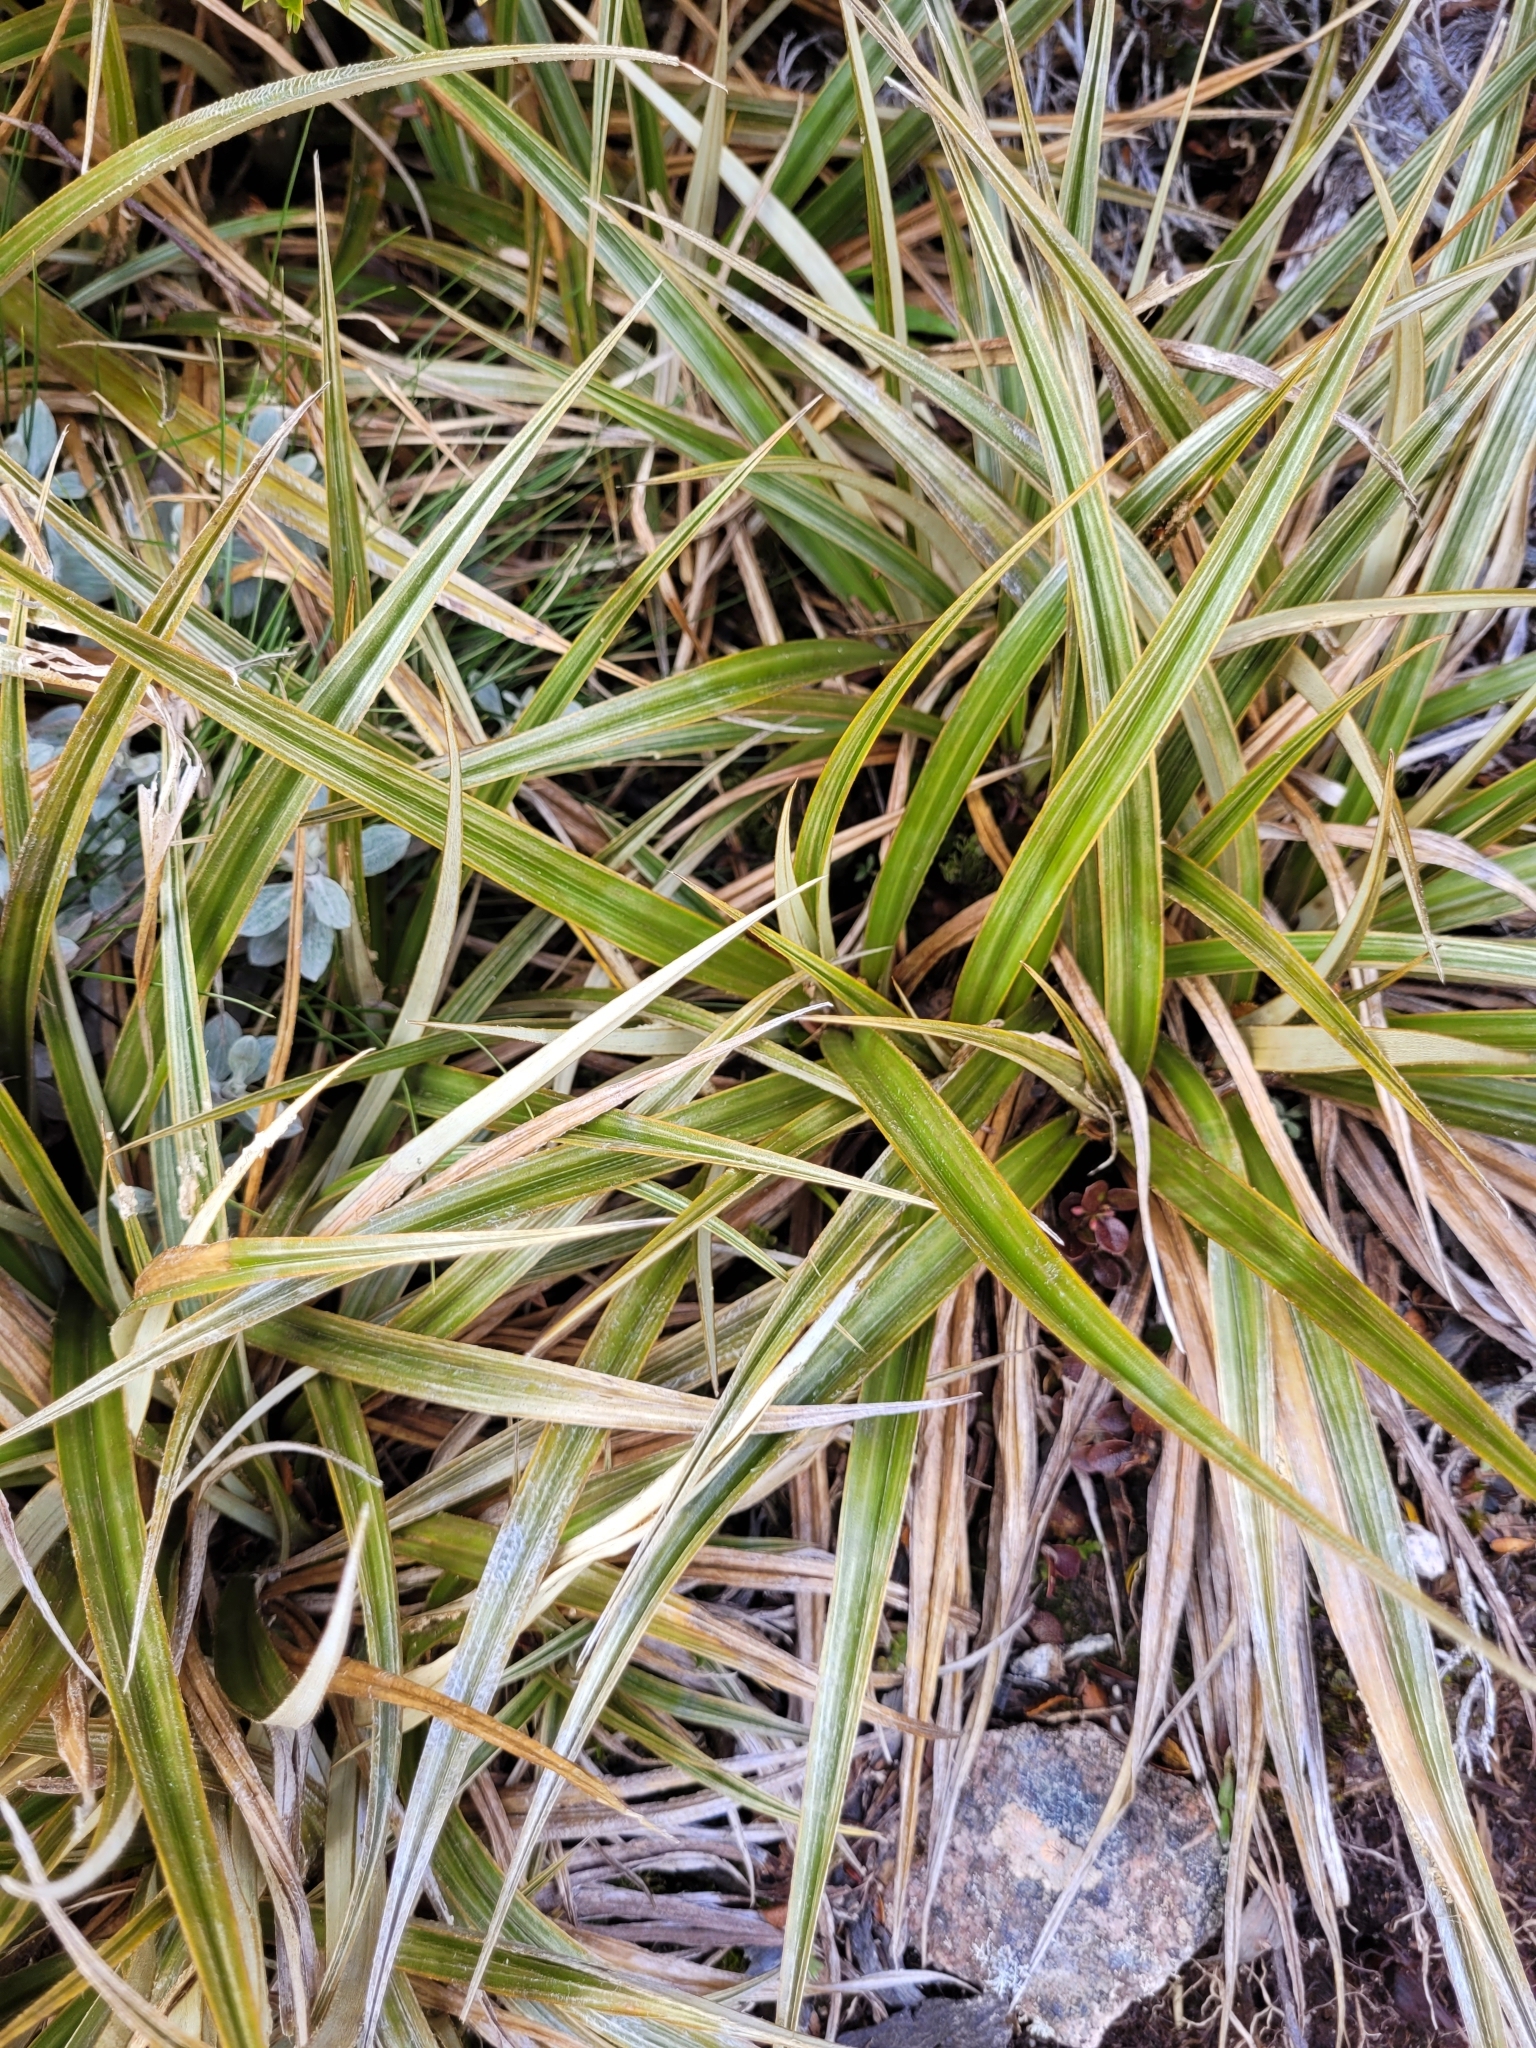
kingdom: Plantae
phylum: Tracheophyta
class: Liliopsida
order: Asparagales
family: Asteliaceae
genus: Astelia
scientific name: Astelia nervosa
